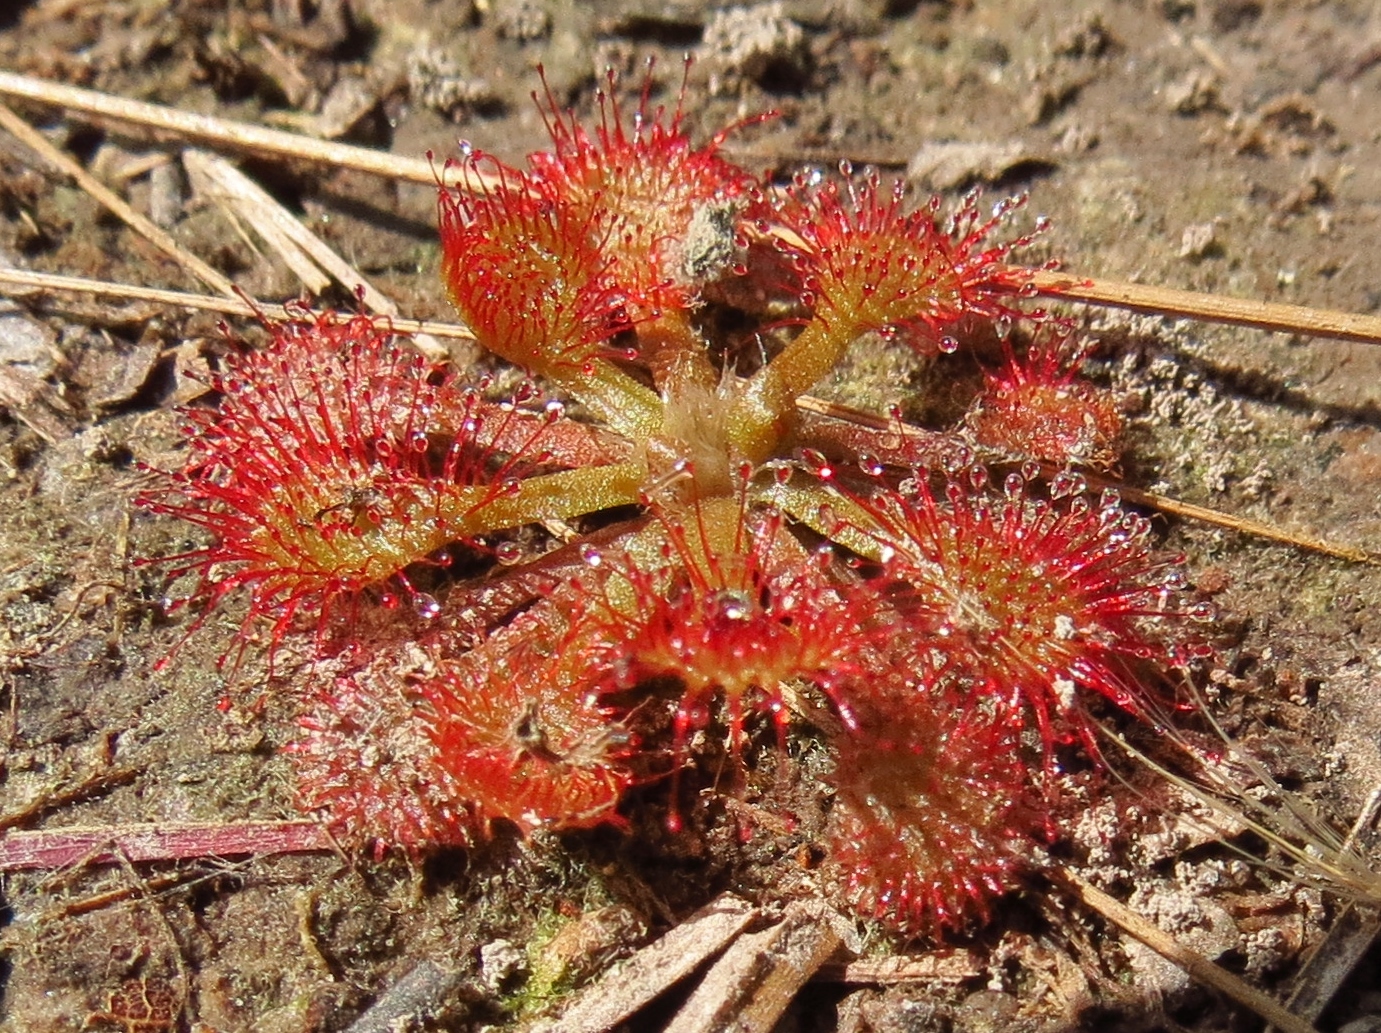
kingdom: Plantae
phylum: Tracheophyta
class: Magnoliopsida
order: Caryophyllales
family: Droseraceae
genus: Drosera
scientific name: Drosera capillaris
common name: Pink sundew
